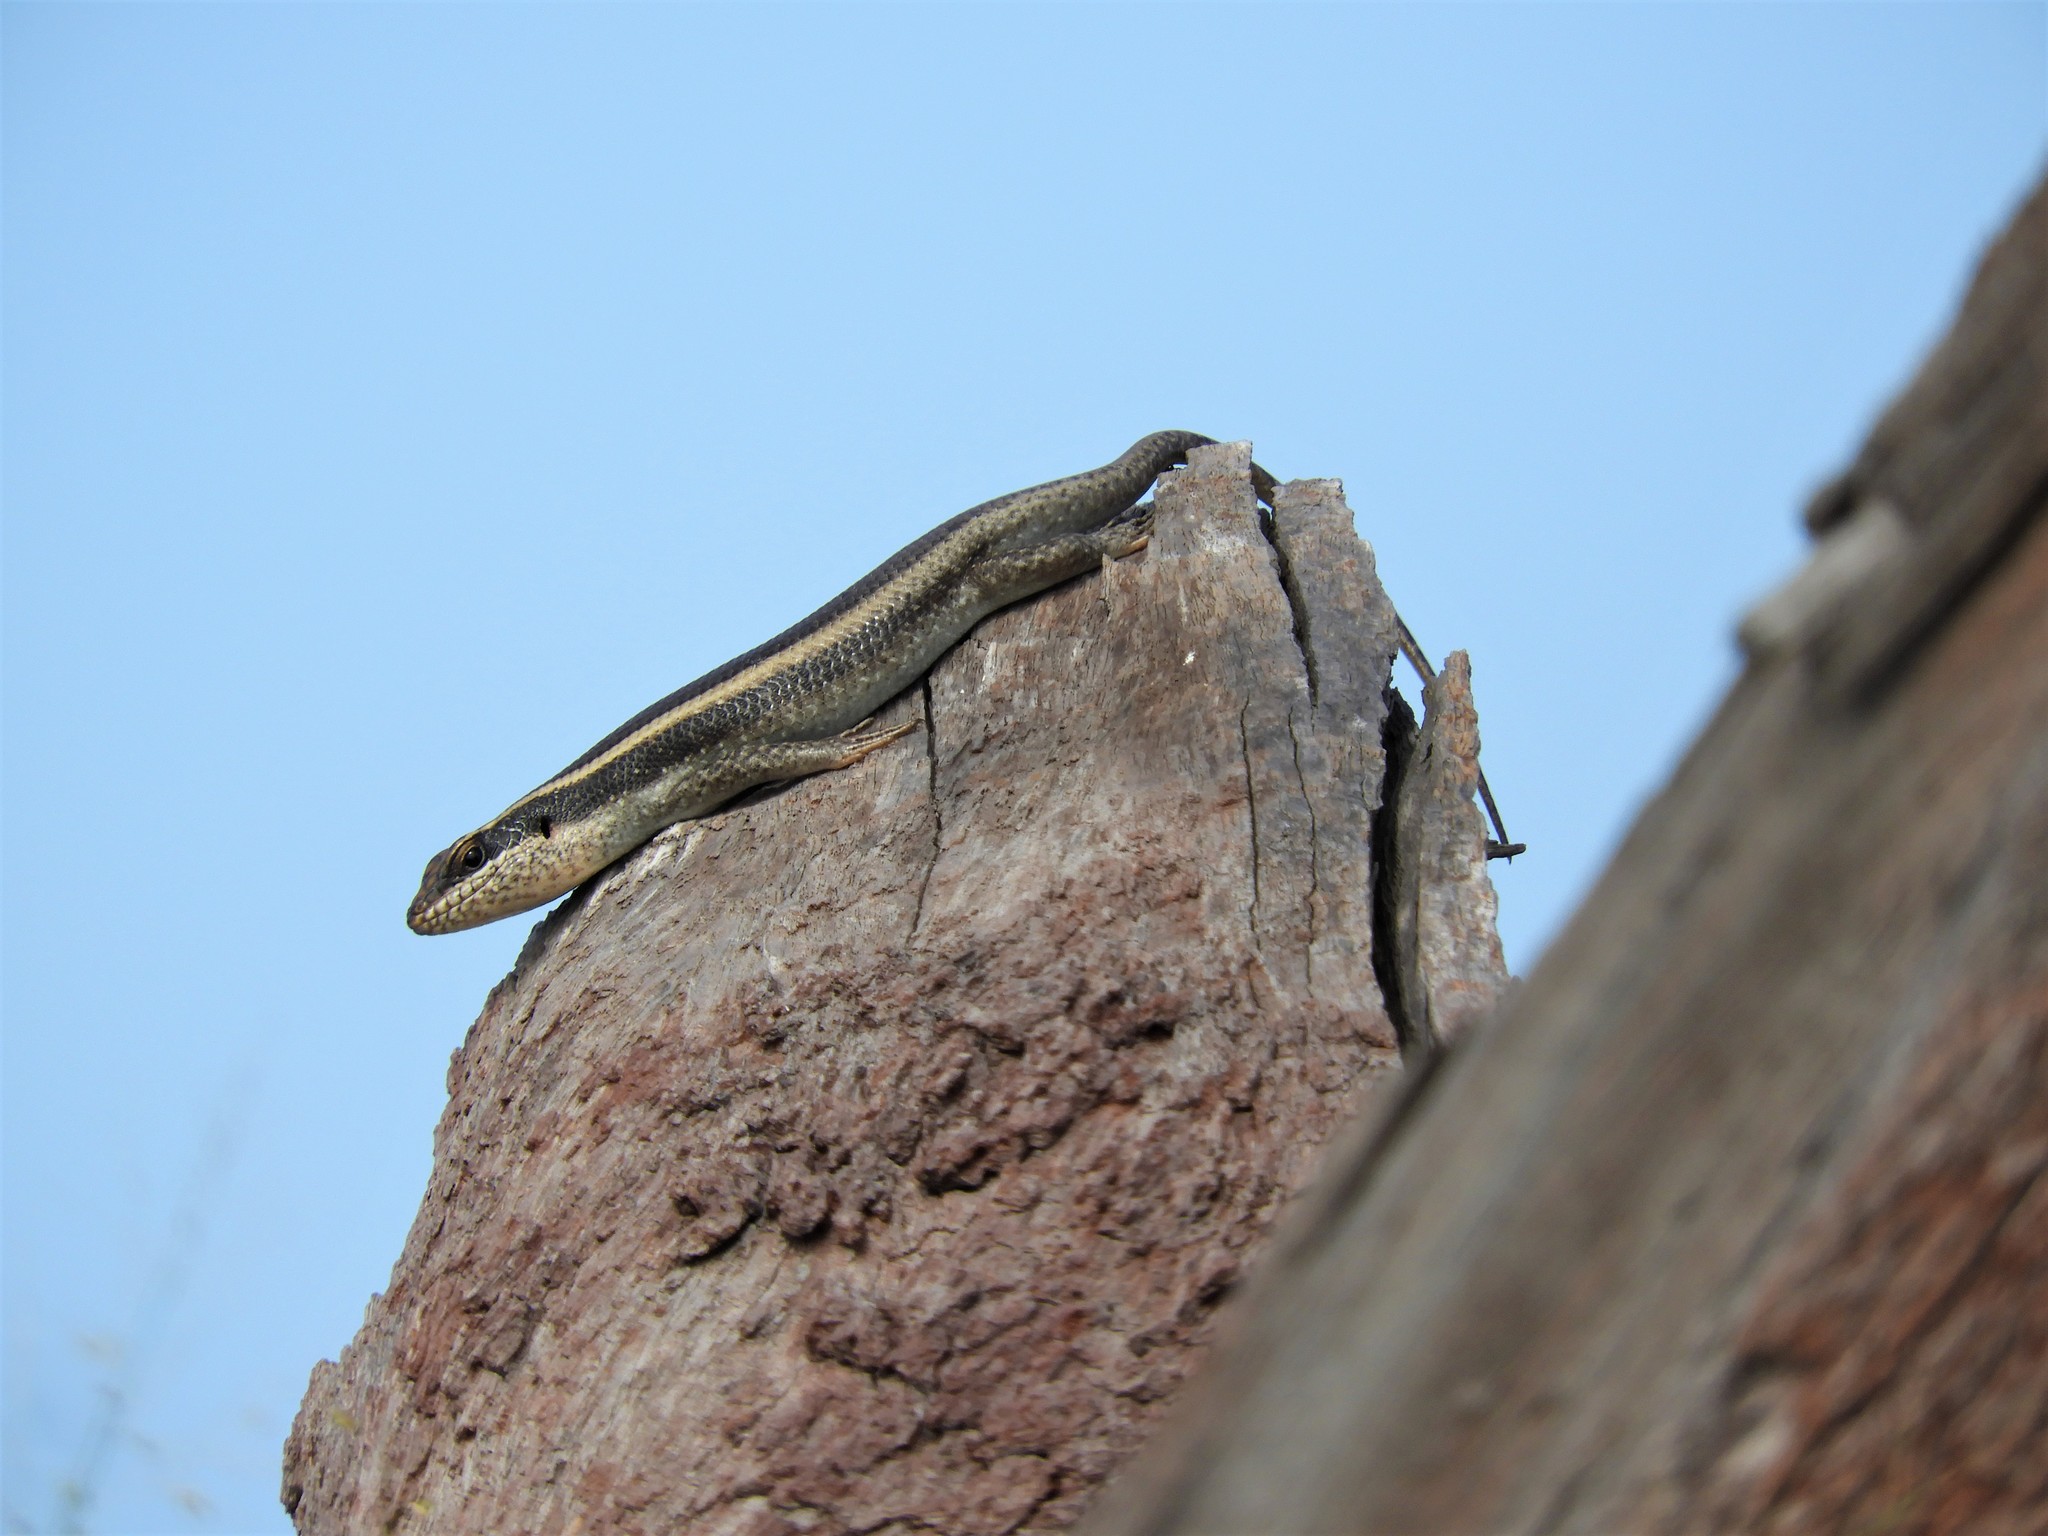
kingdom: Animalia
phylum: Chordata
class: Squamata
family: Scincidae
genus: Trachylepis
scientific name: Trachylepis striata
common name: African striped mabuya
